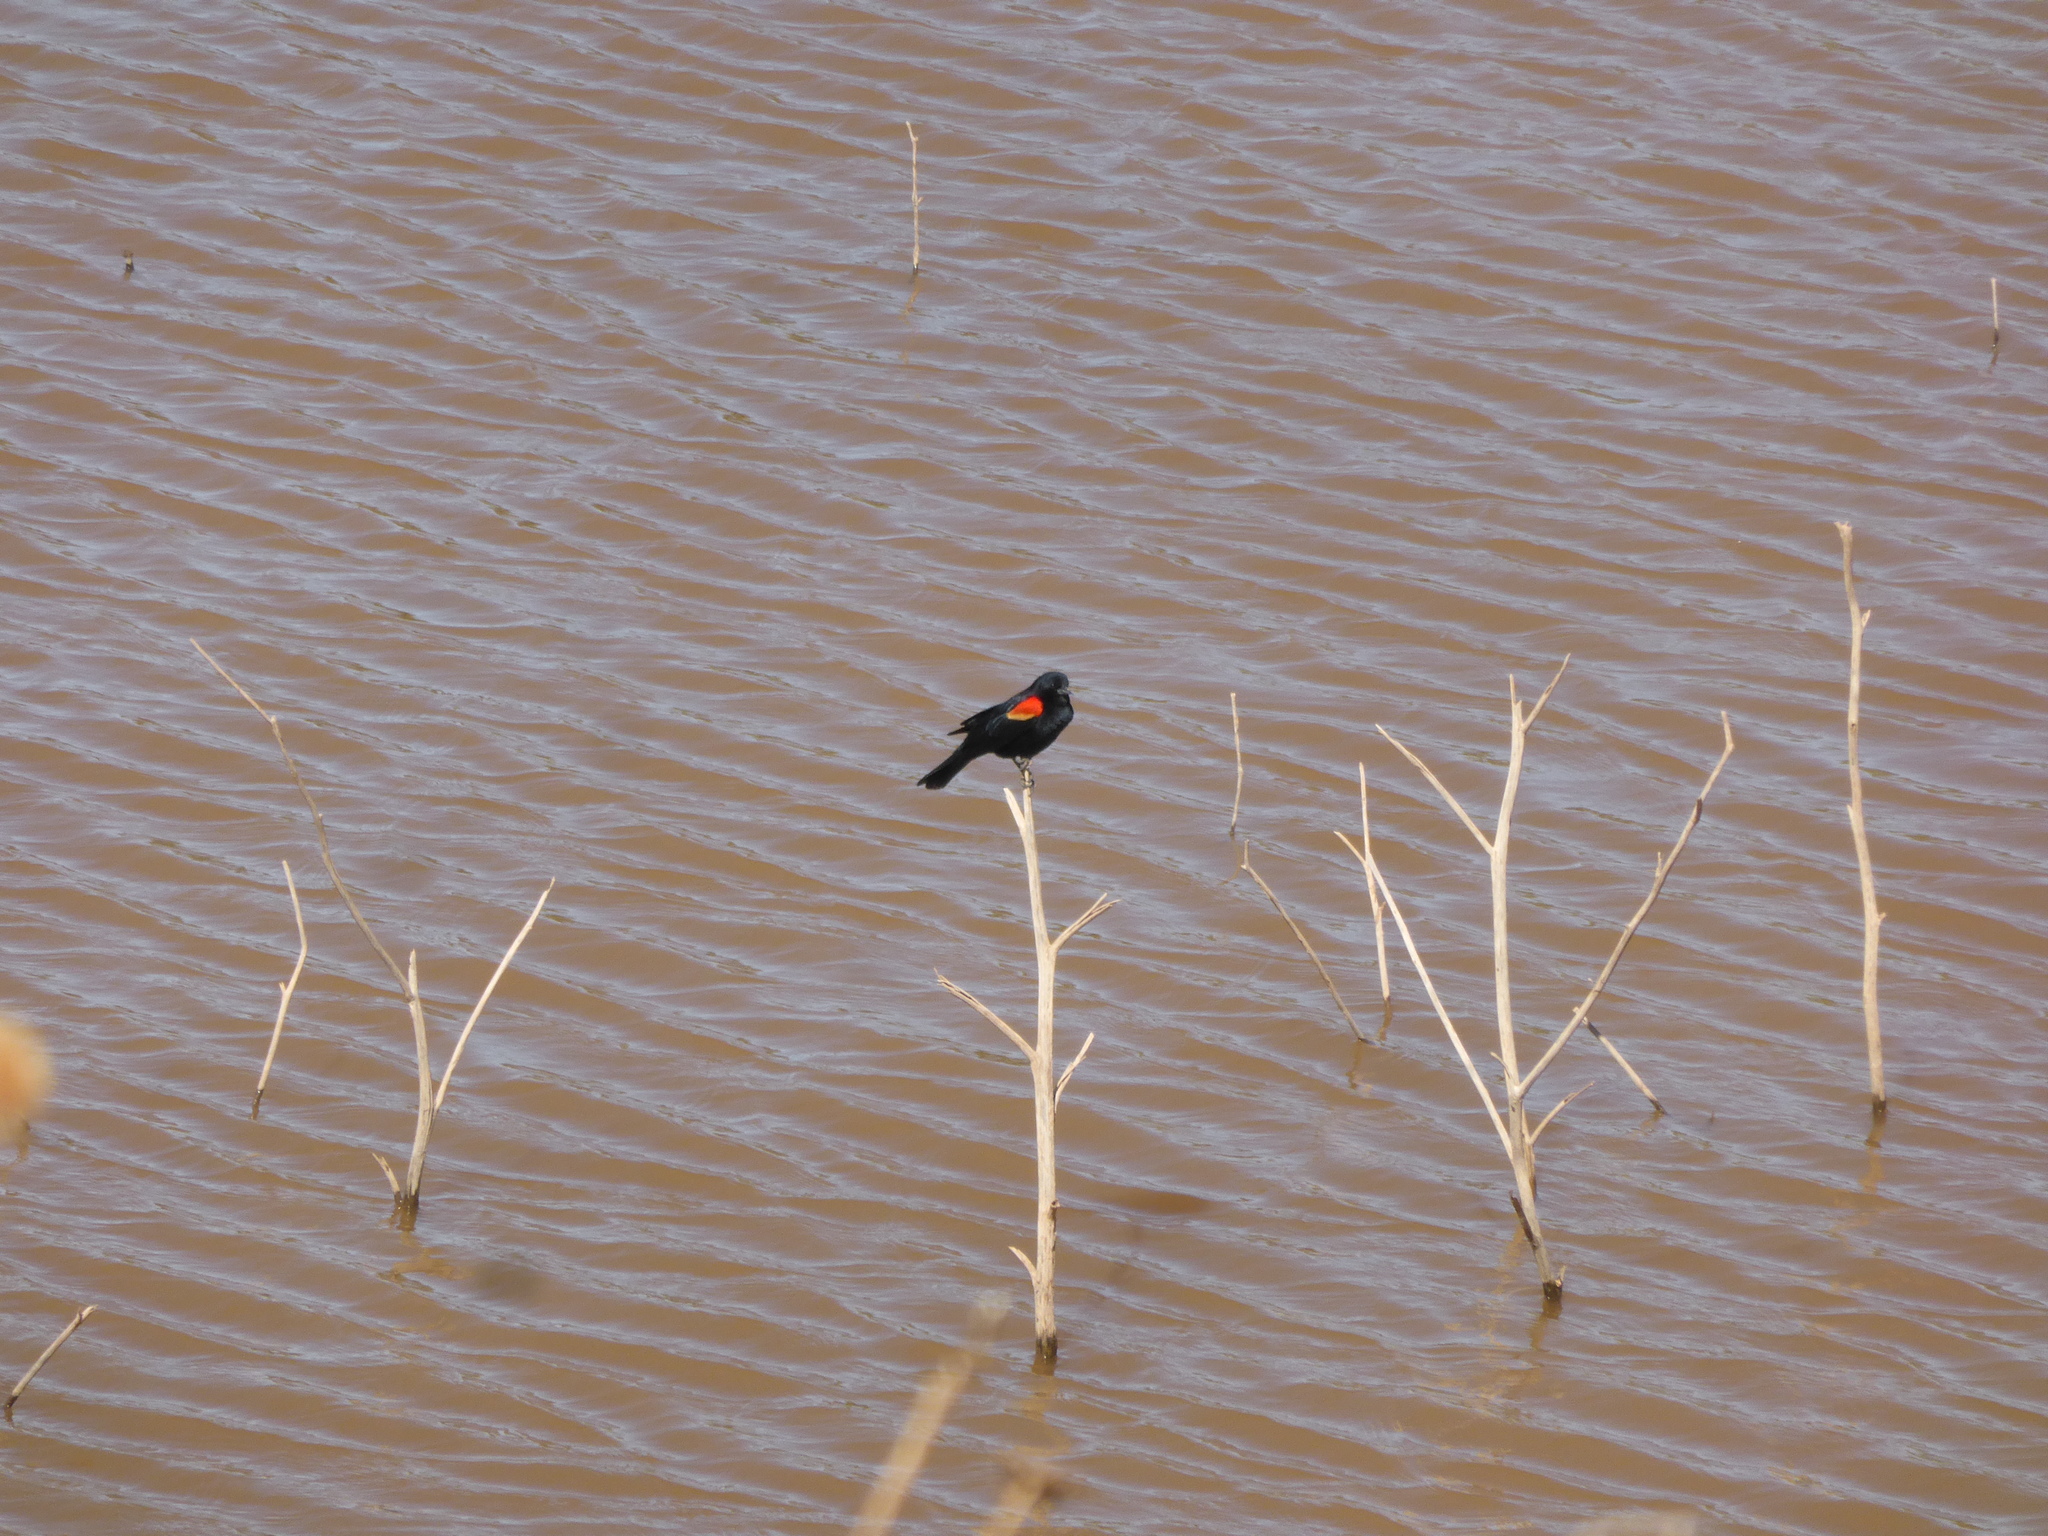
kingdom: Animalia
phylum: Chordata
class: Aves
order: Passeriformes
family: Icteridae
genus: Agelaius
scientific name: Agelaius phoeniceus
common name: Red-winged blackbird
